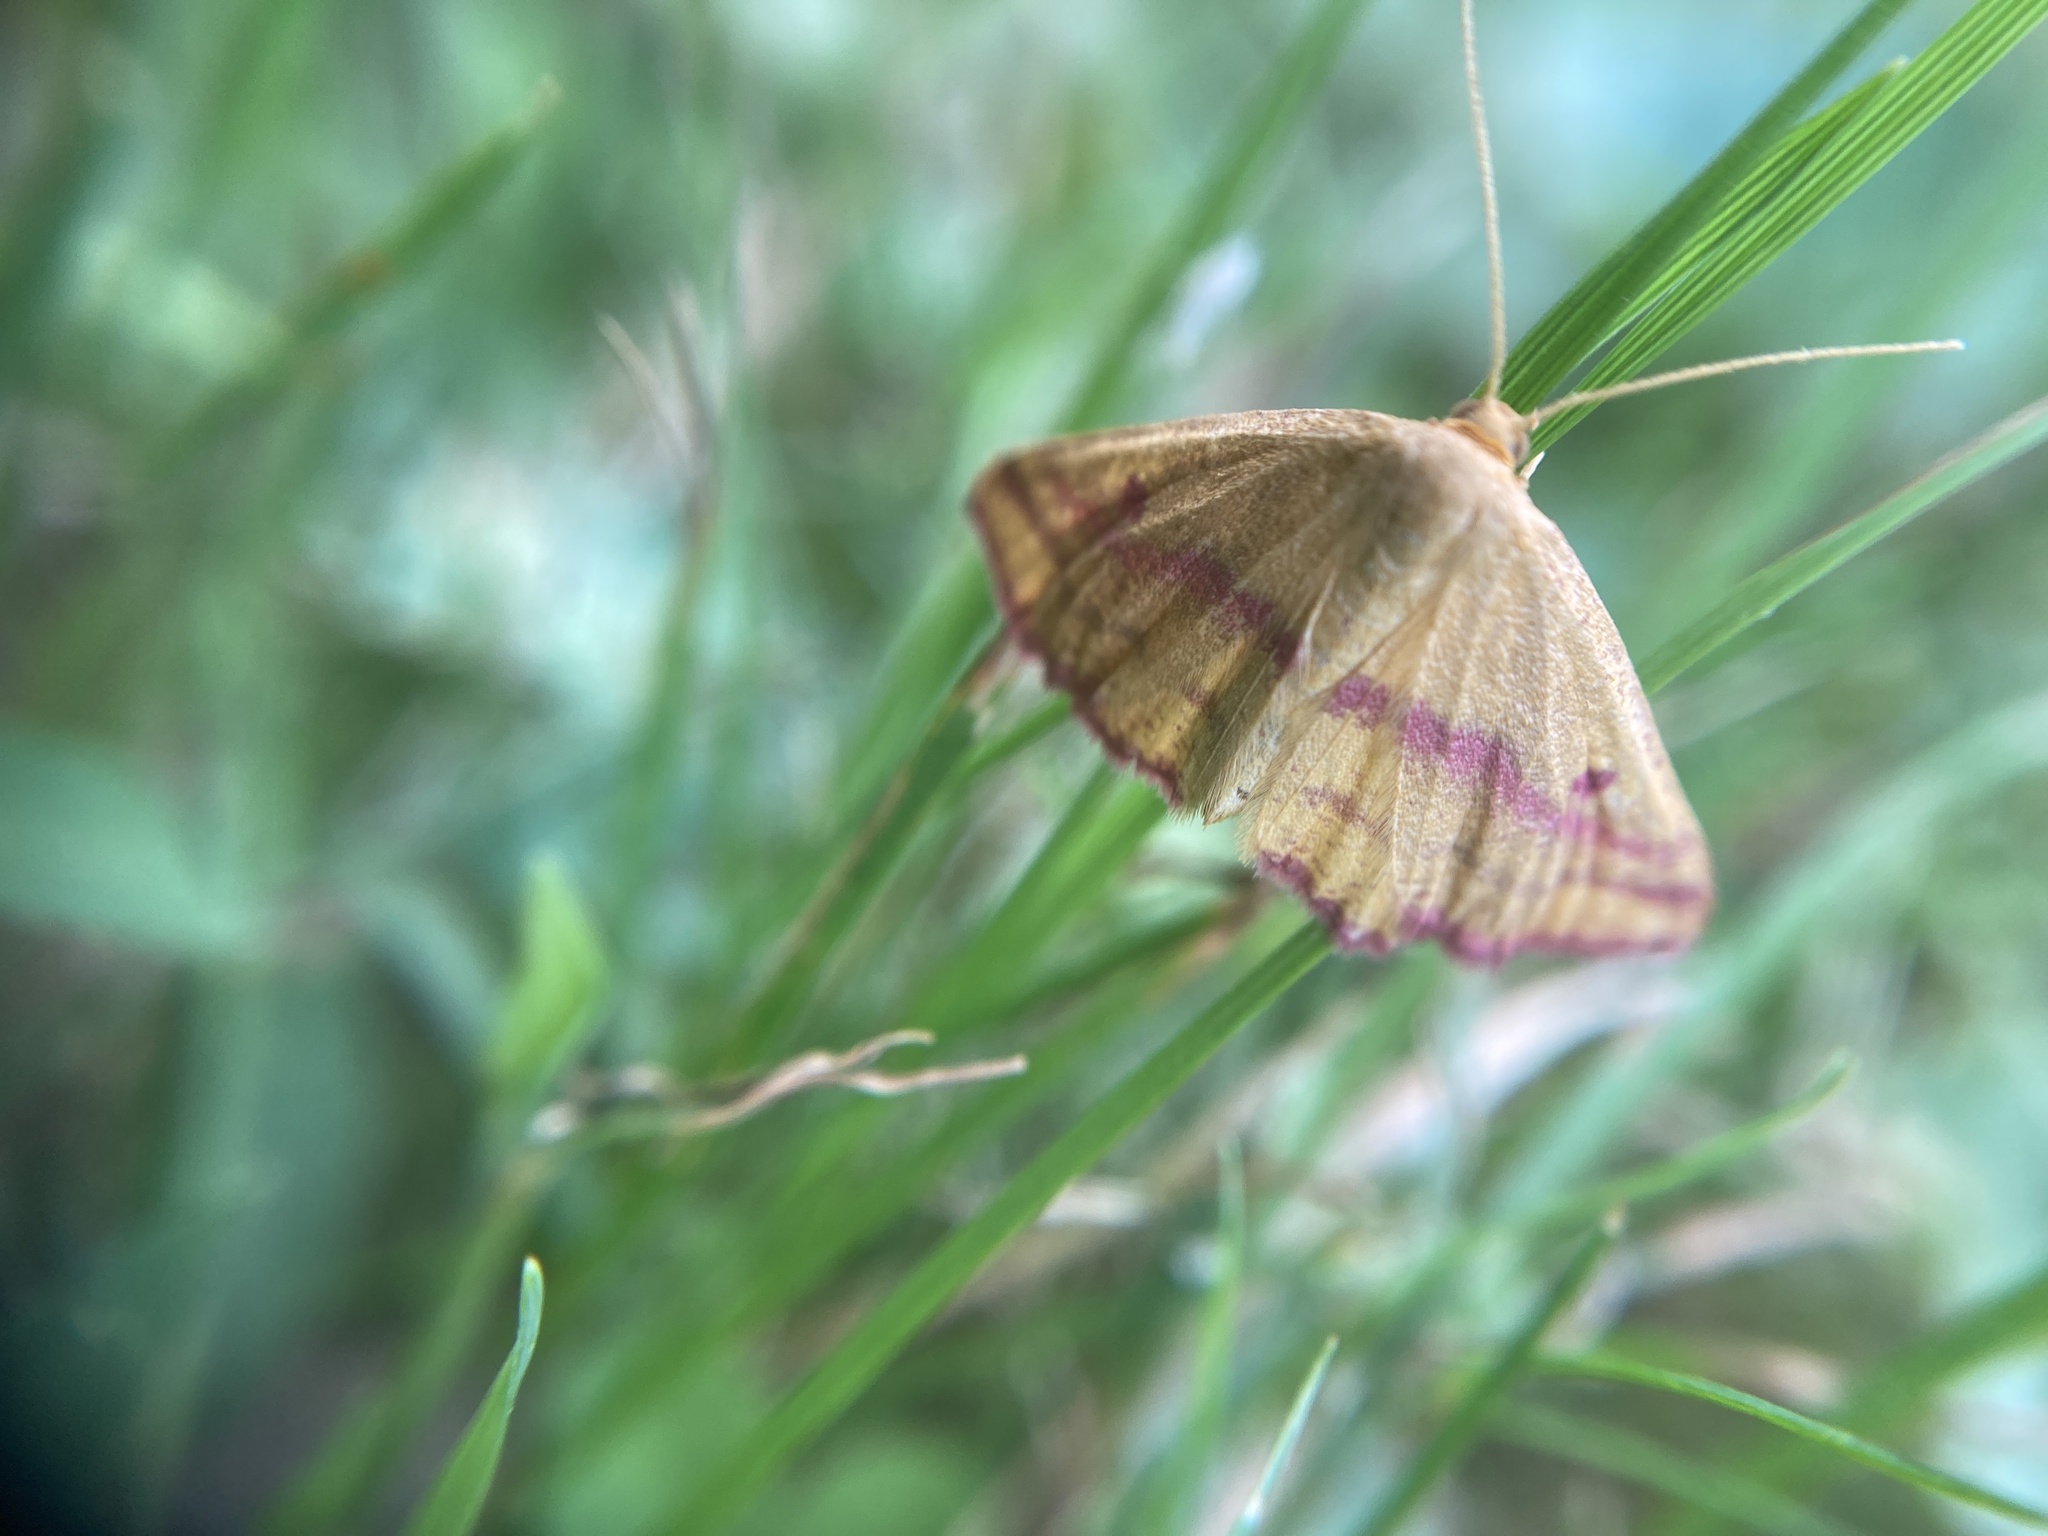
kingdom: Animalia
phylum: Arthropoda
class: Insecta
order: Lepidoptera
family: Geometridae
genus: Haematopis
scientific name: Haematopis grataria
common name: Chickweed geometer
